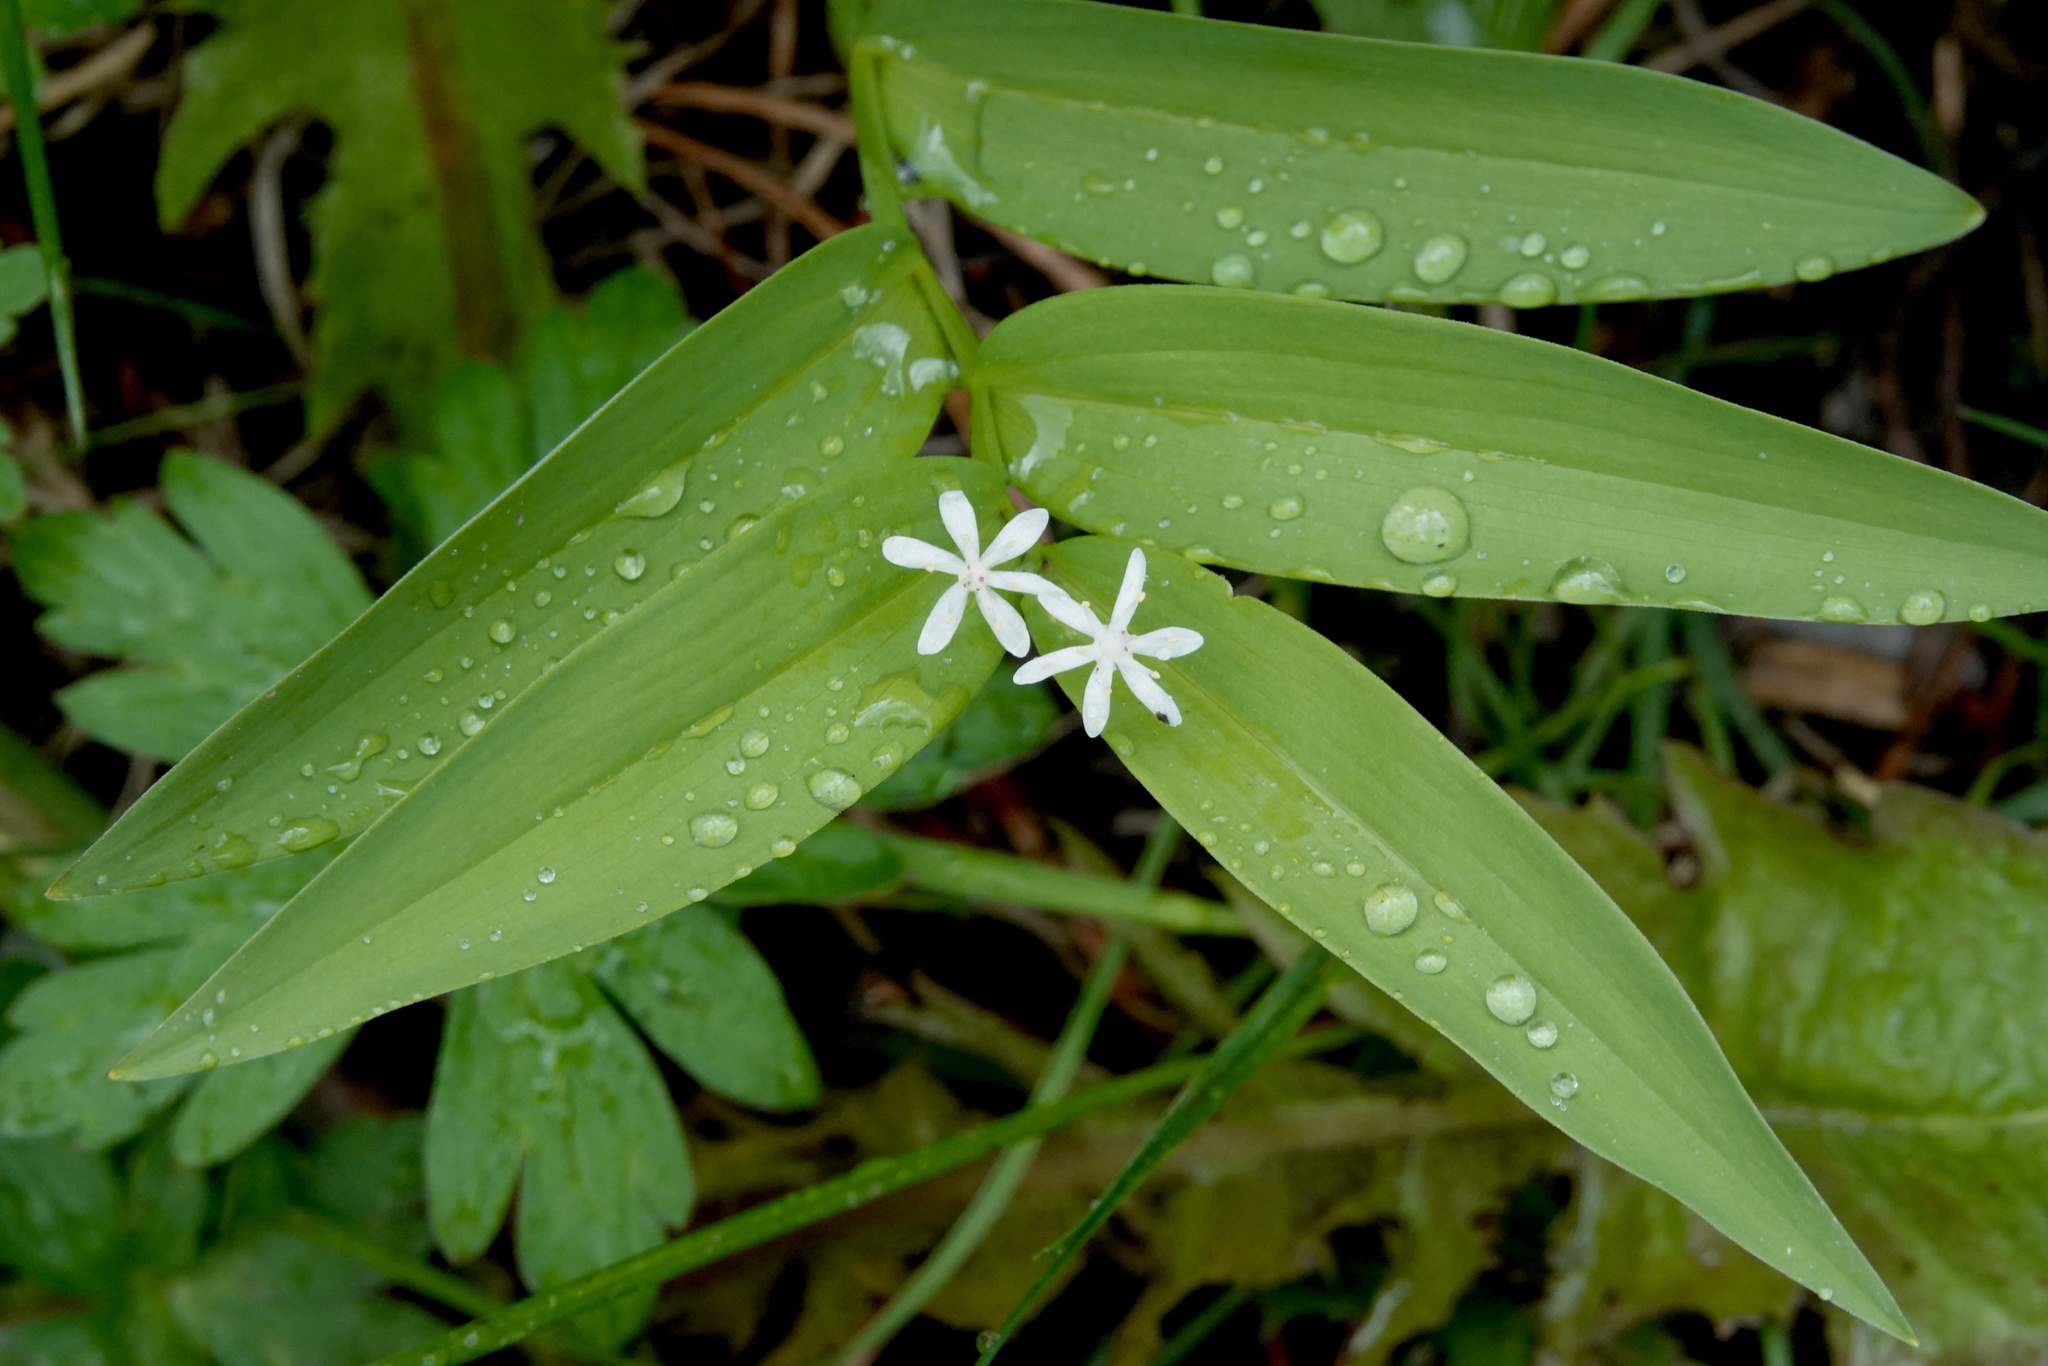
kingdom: Plantae
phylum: Tracheophyta
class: Liliopsida
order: Asparagales
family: Asparagaceae
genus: Maianthemum
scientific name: Maianthemum stellatum
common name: Little false solomon's seal
